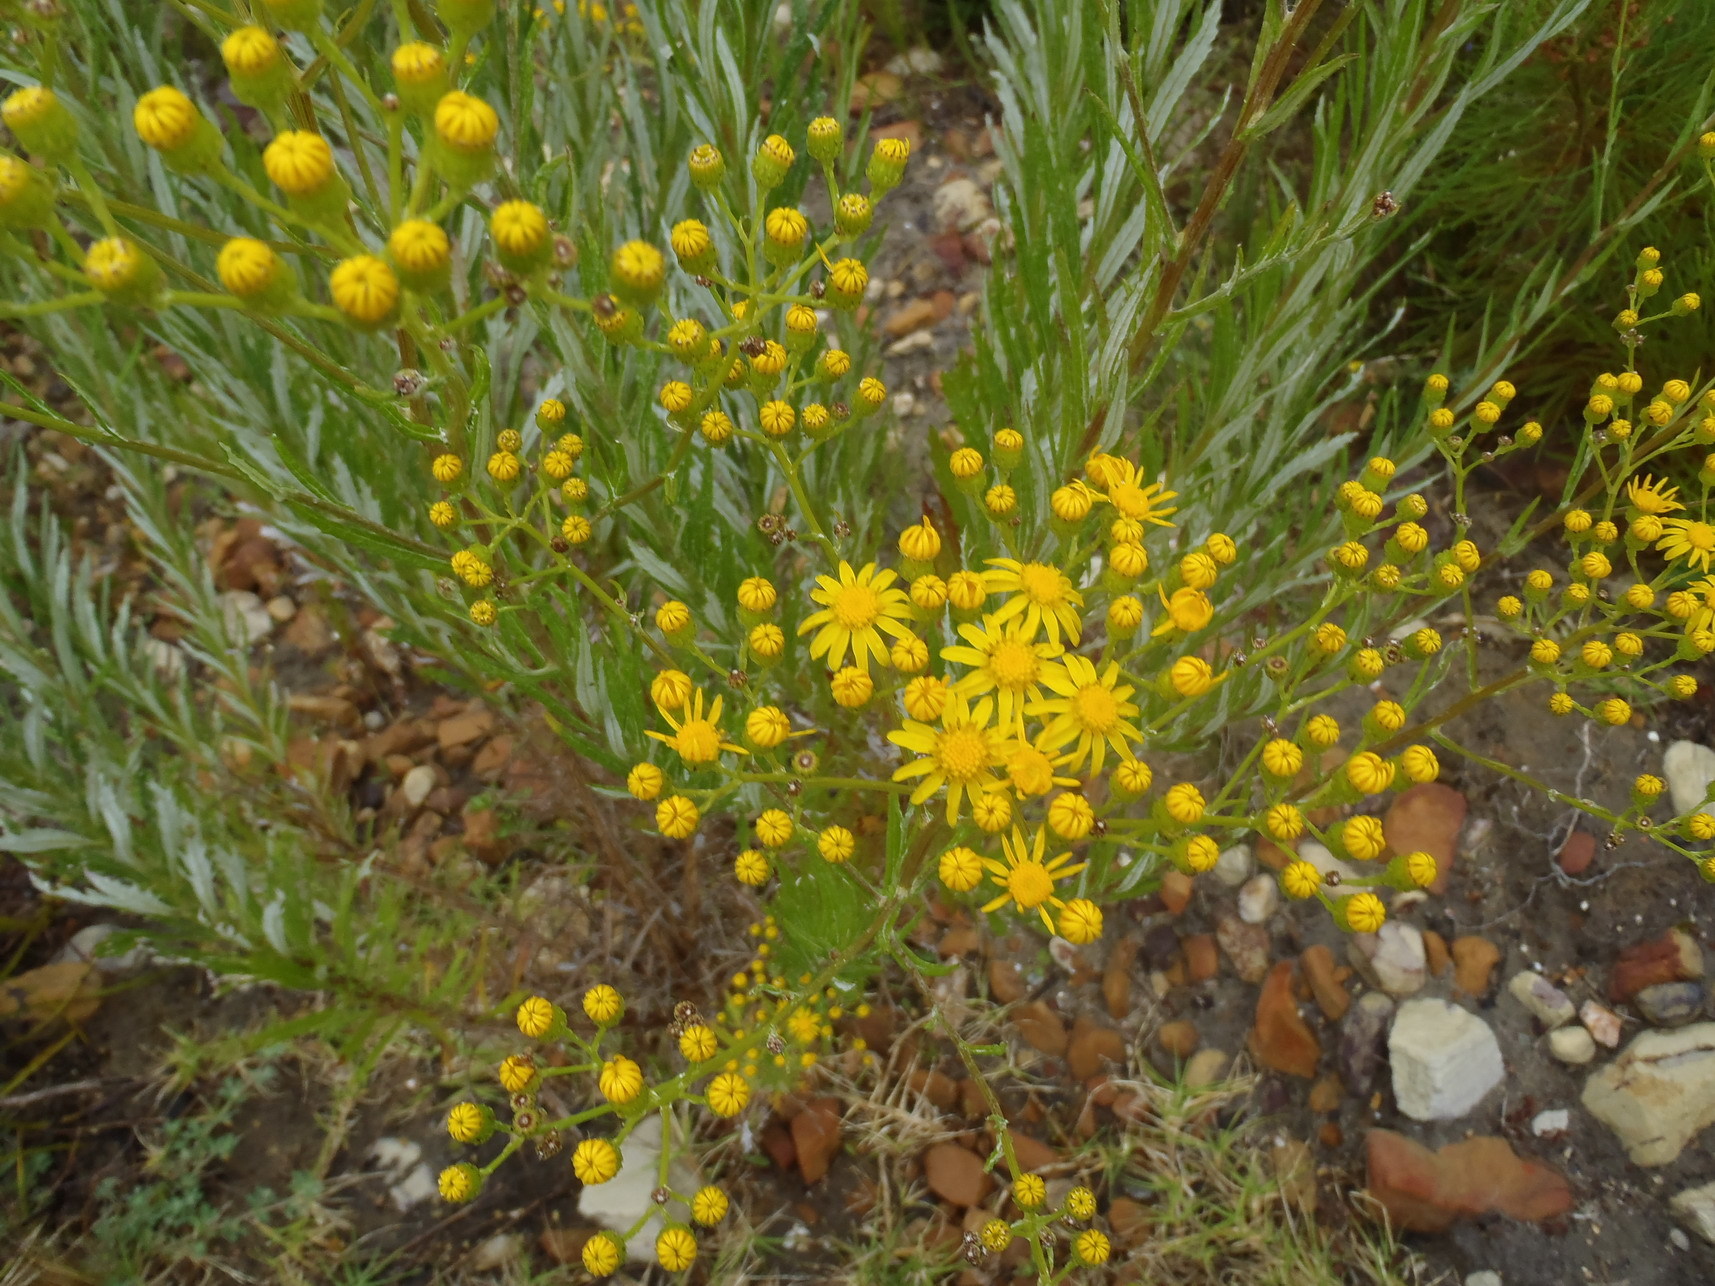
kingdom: Plantae
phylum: Tracheophyta
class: Magnoliopsida
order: Asterales
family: Asteraceae
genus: Senecio
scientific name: Senecio pterophorus
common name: Shoddy ragwort
